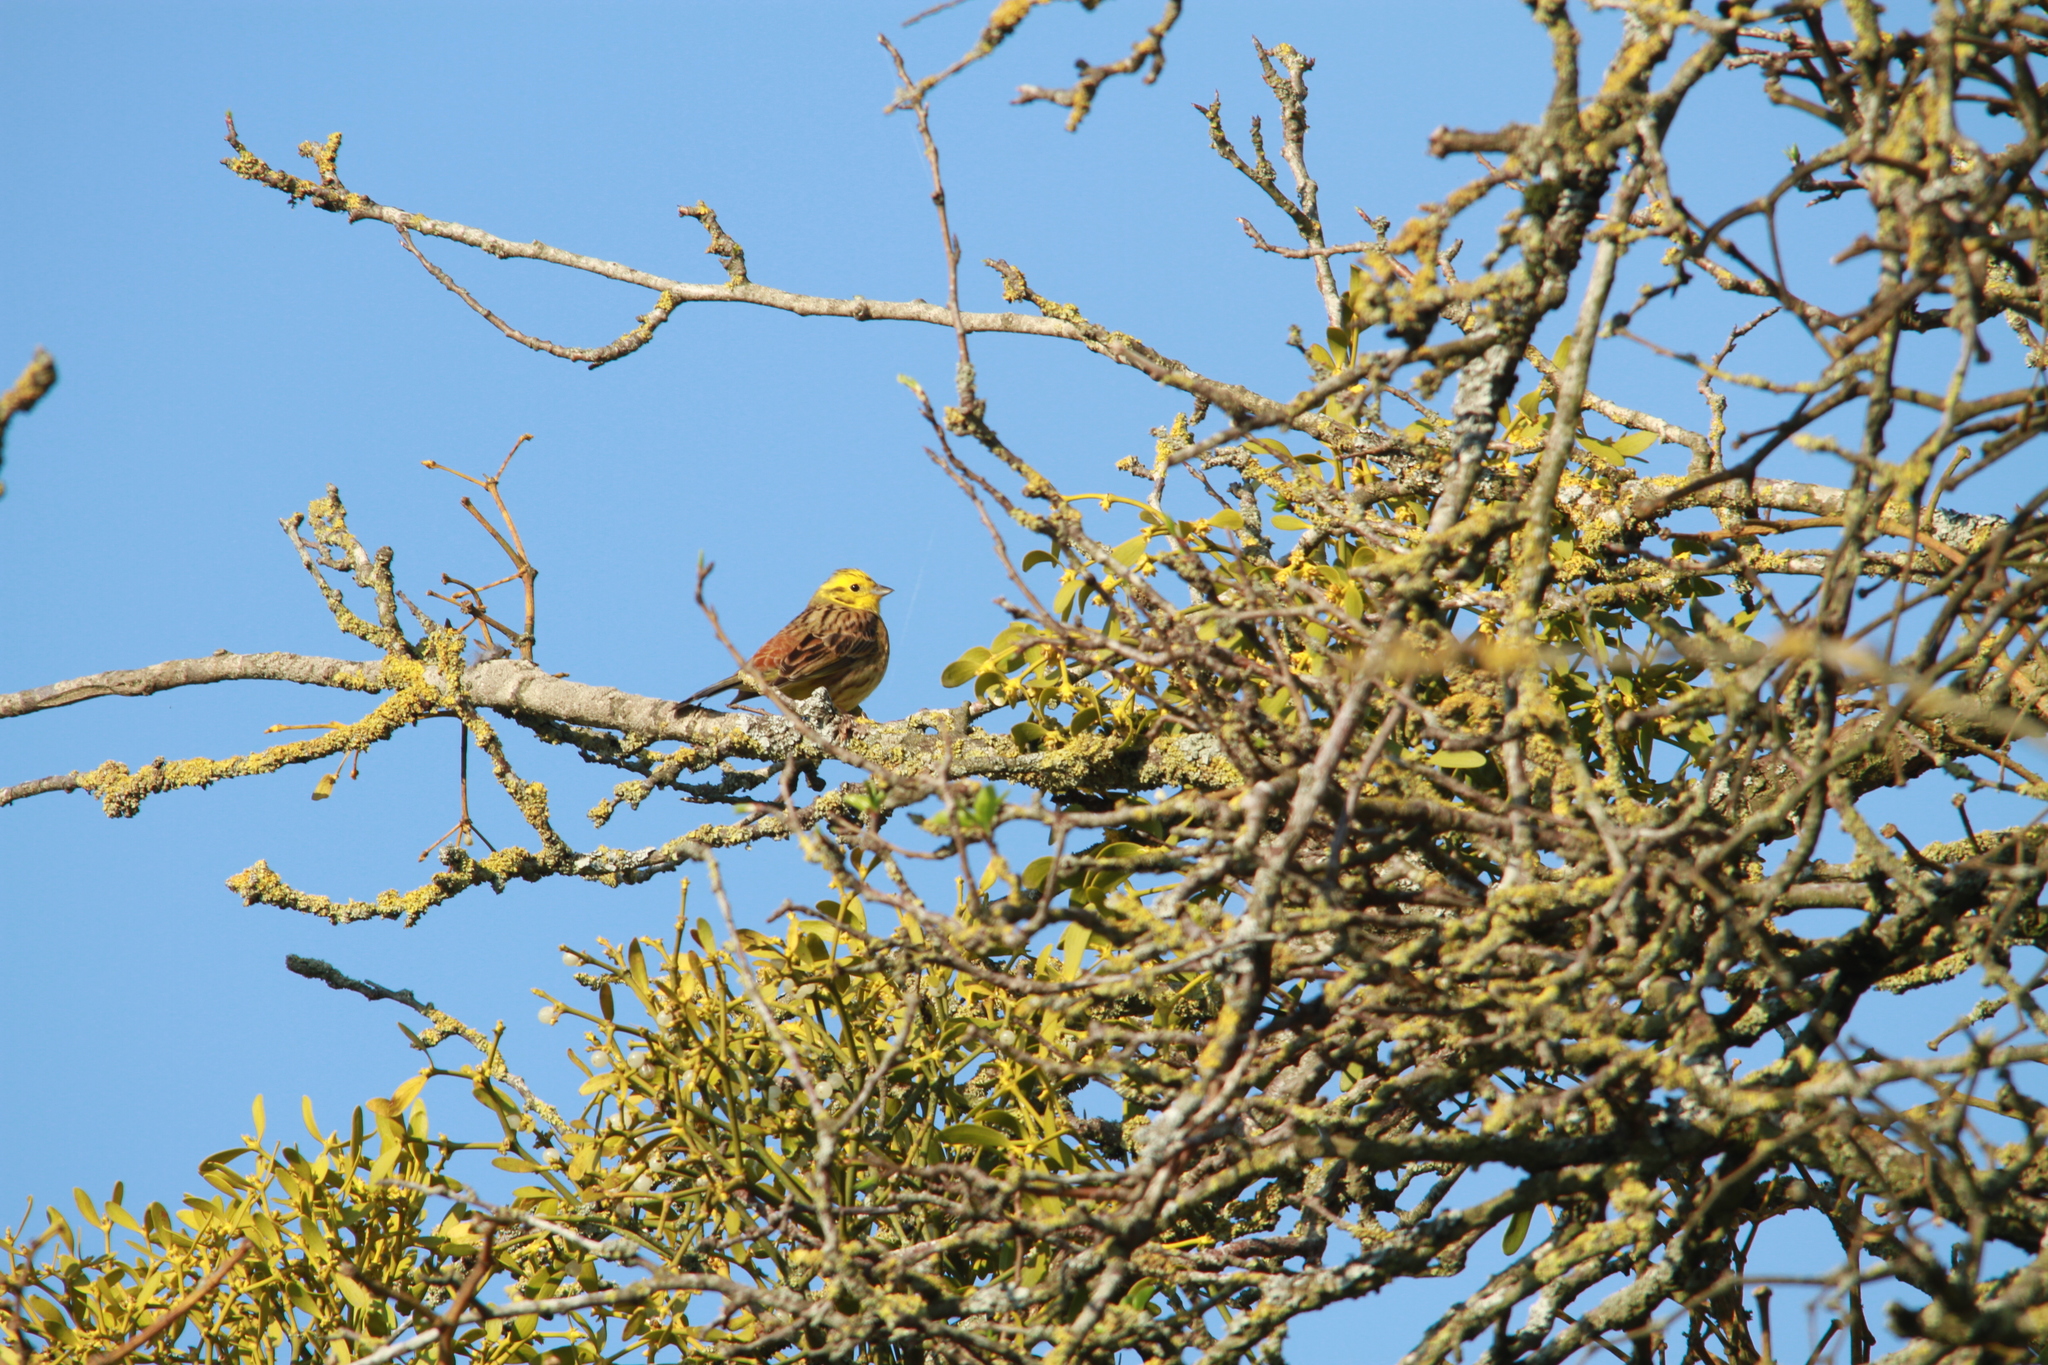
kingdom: Animalia
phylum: Chordata
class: Aves
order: Passeriformes
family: Emberizidae
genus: Emberiza
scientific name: Emberiza citrinella
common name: Yellowhammer
